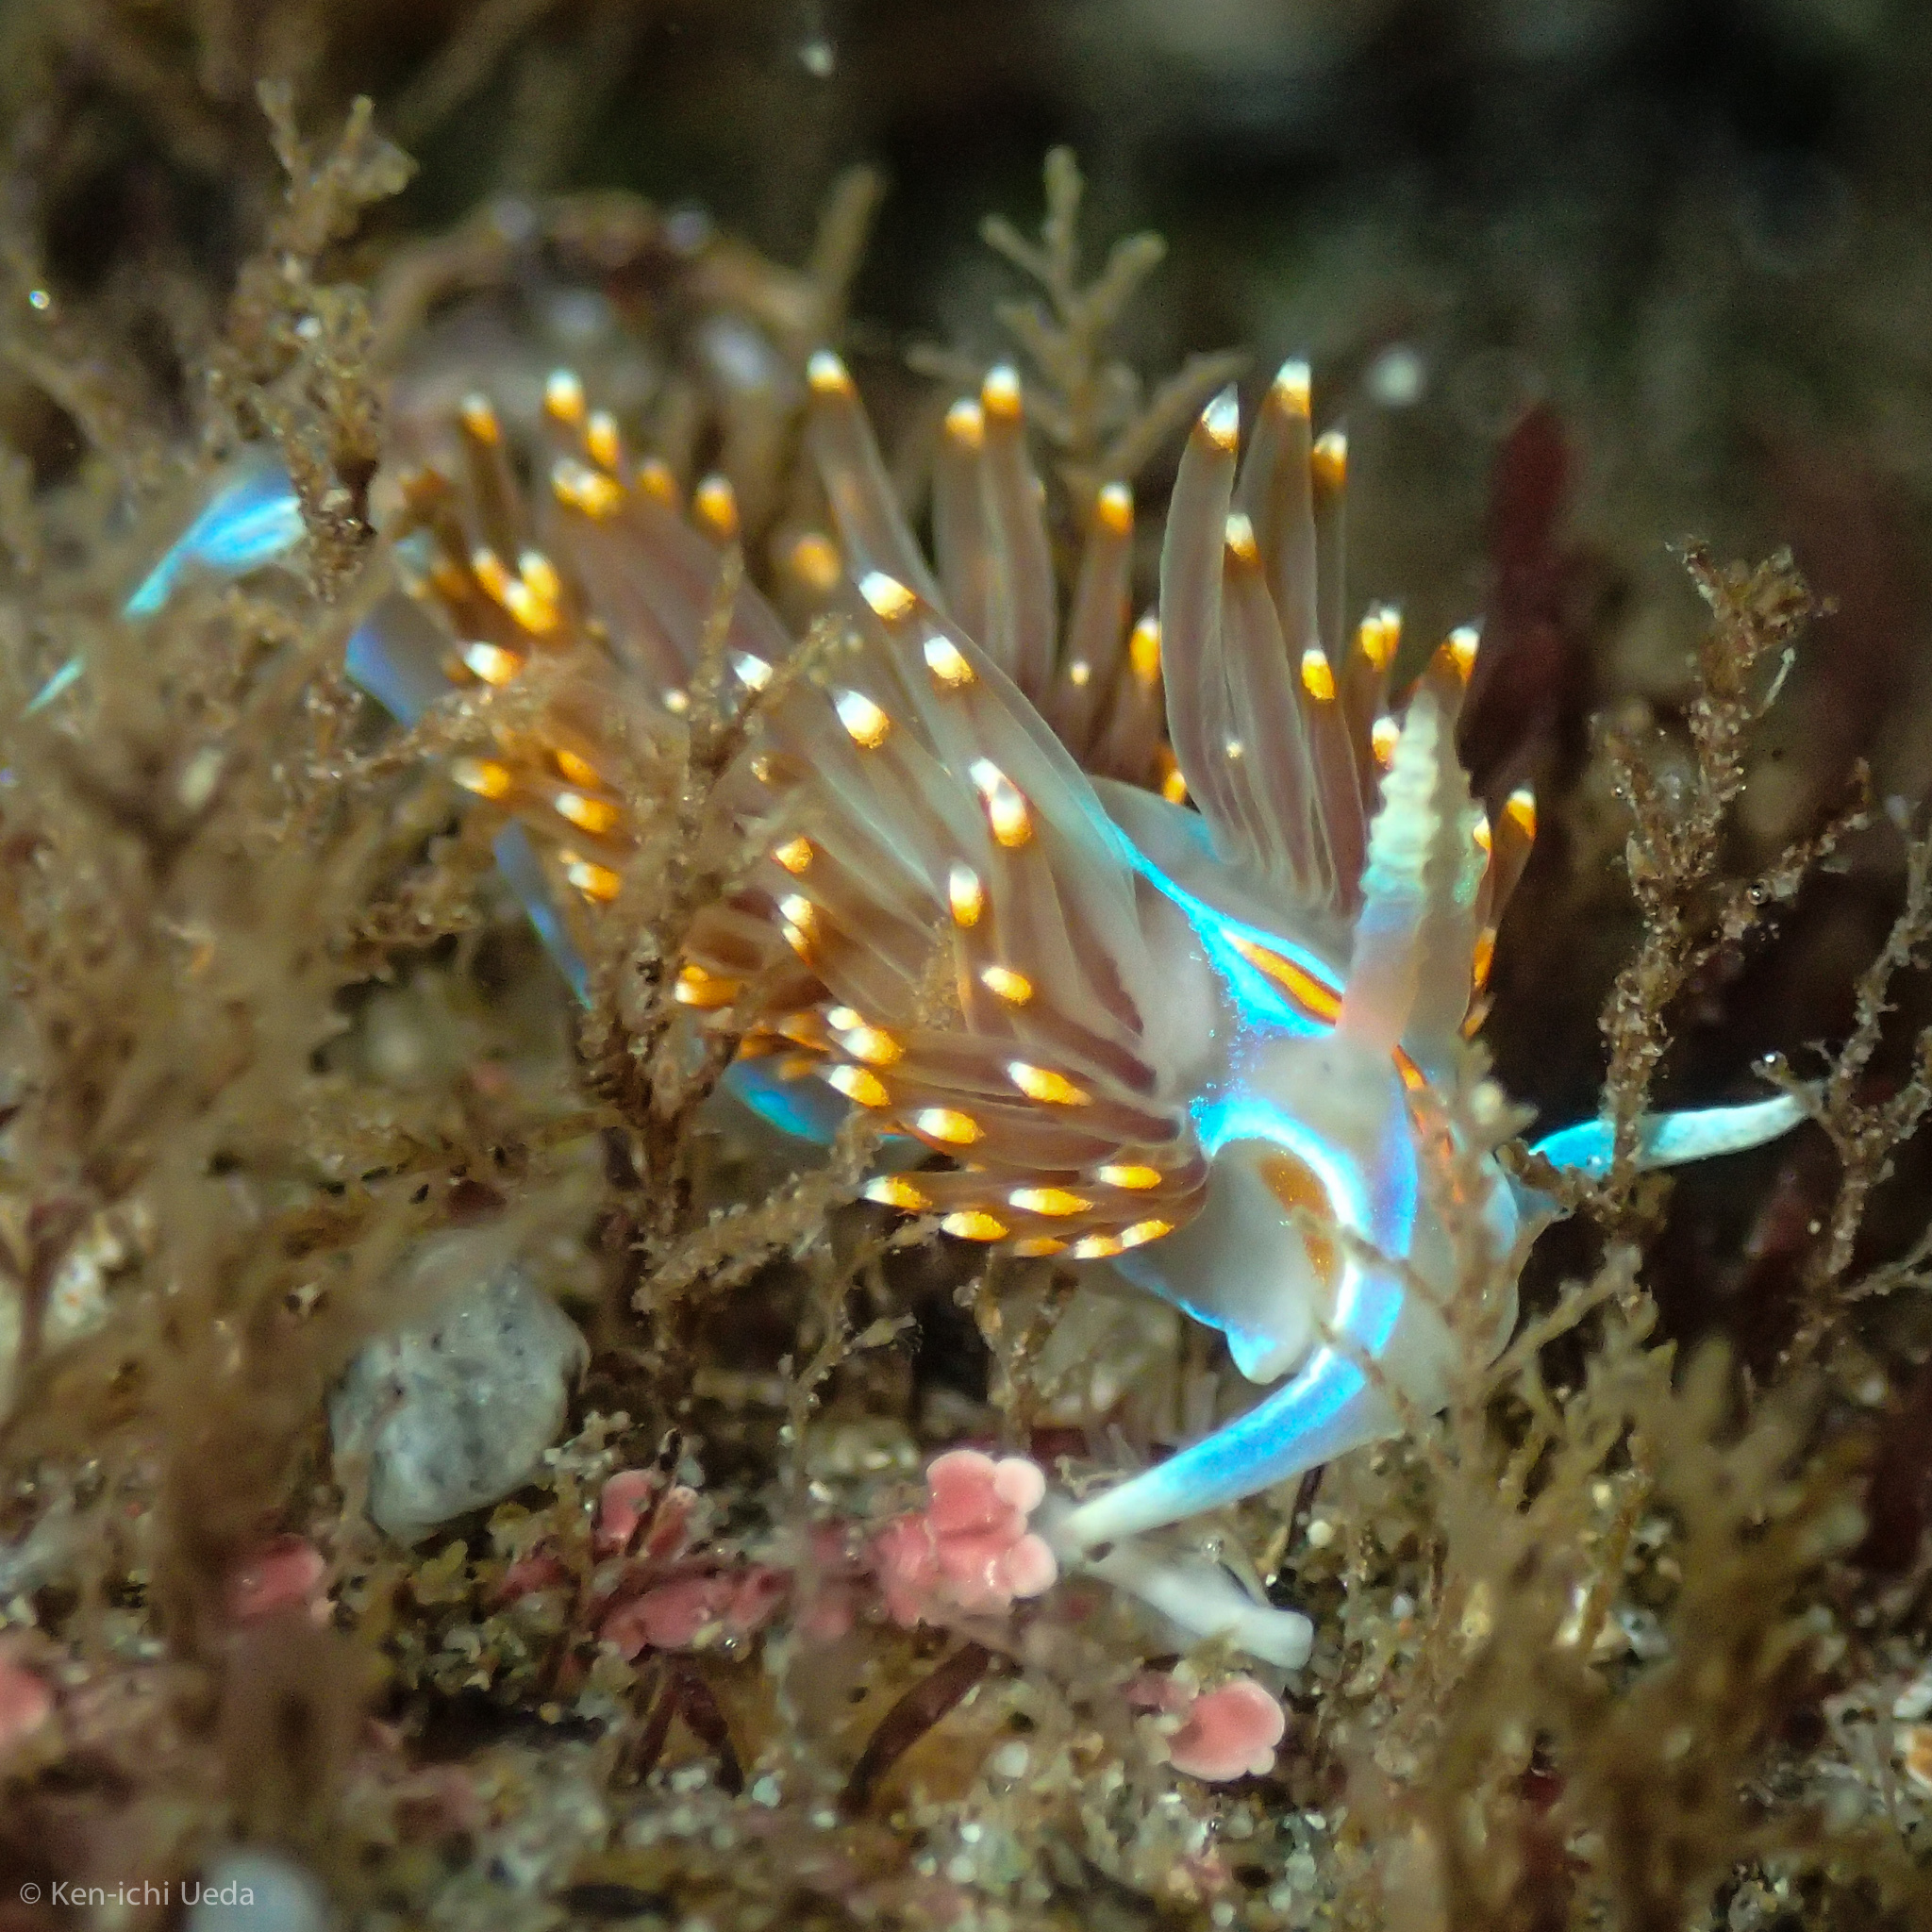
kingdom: Animalia
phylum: Mollusca
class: Gastropoda
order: Nudibranchia
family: Myrrhinidae
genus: Hermissenda
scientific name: Hermissenda opalescens
